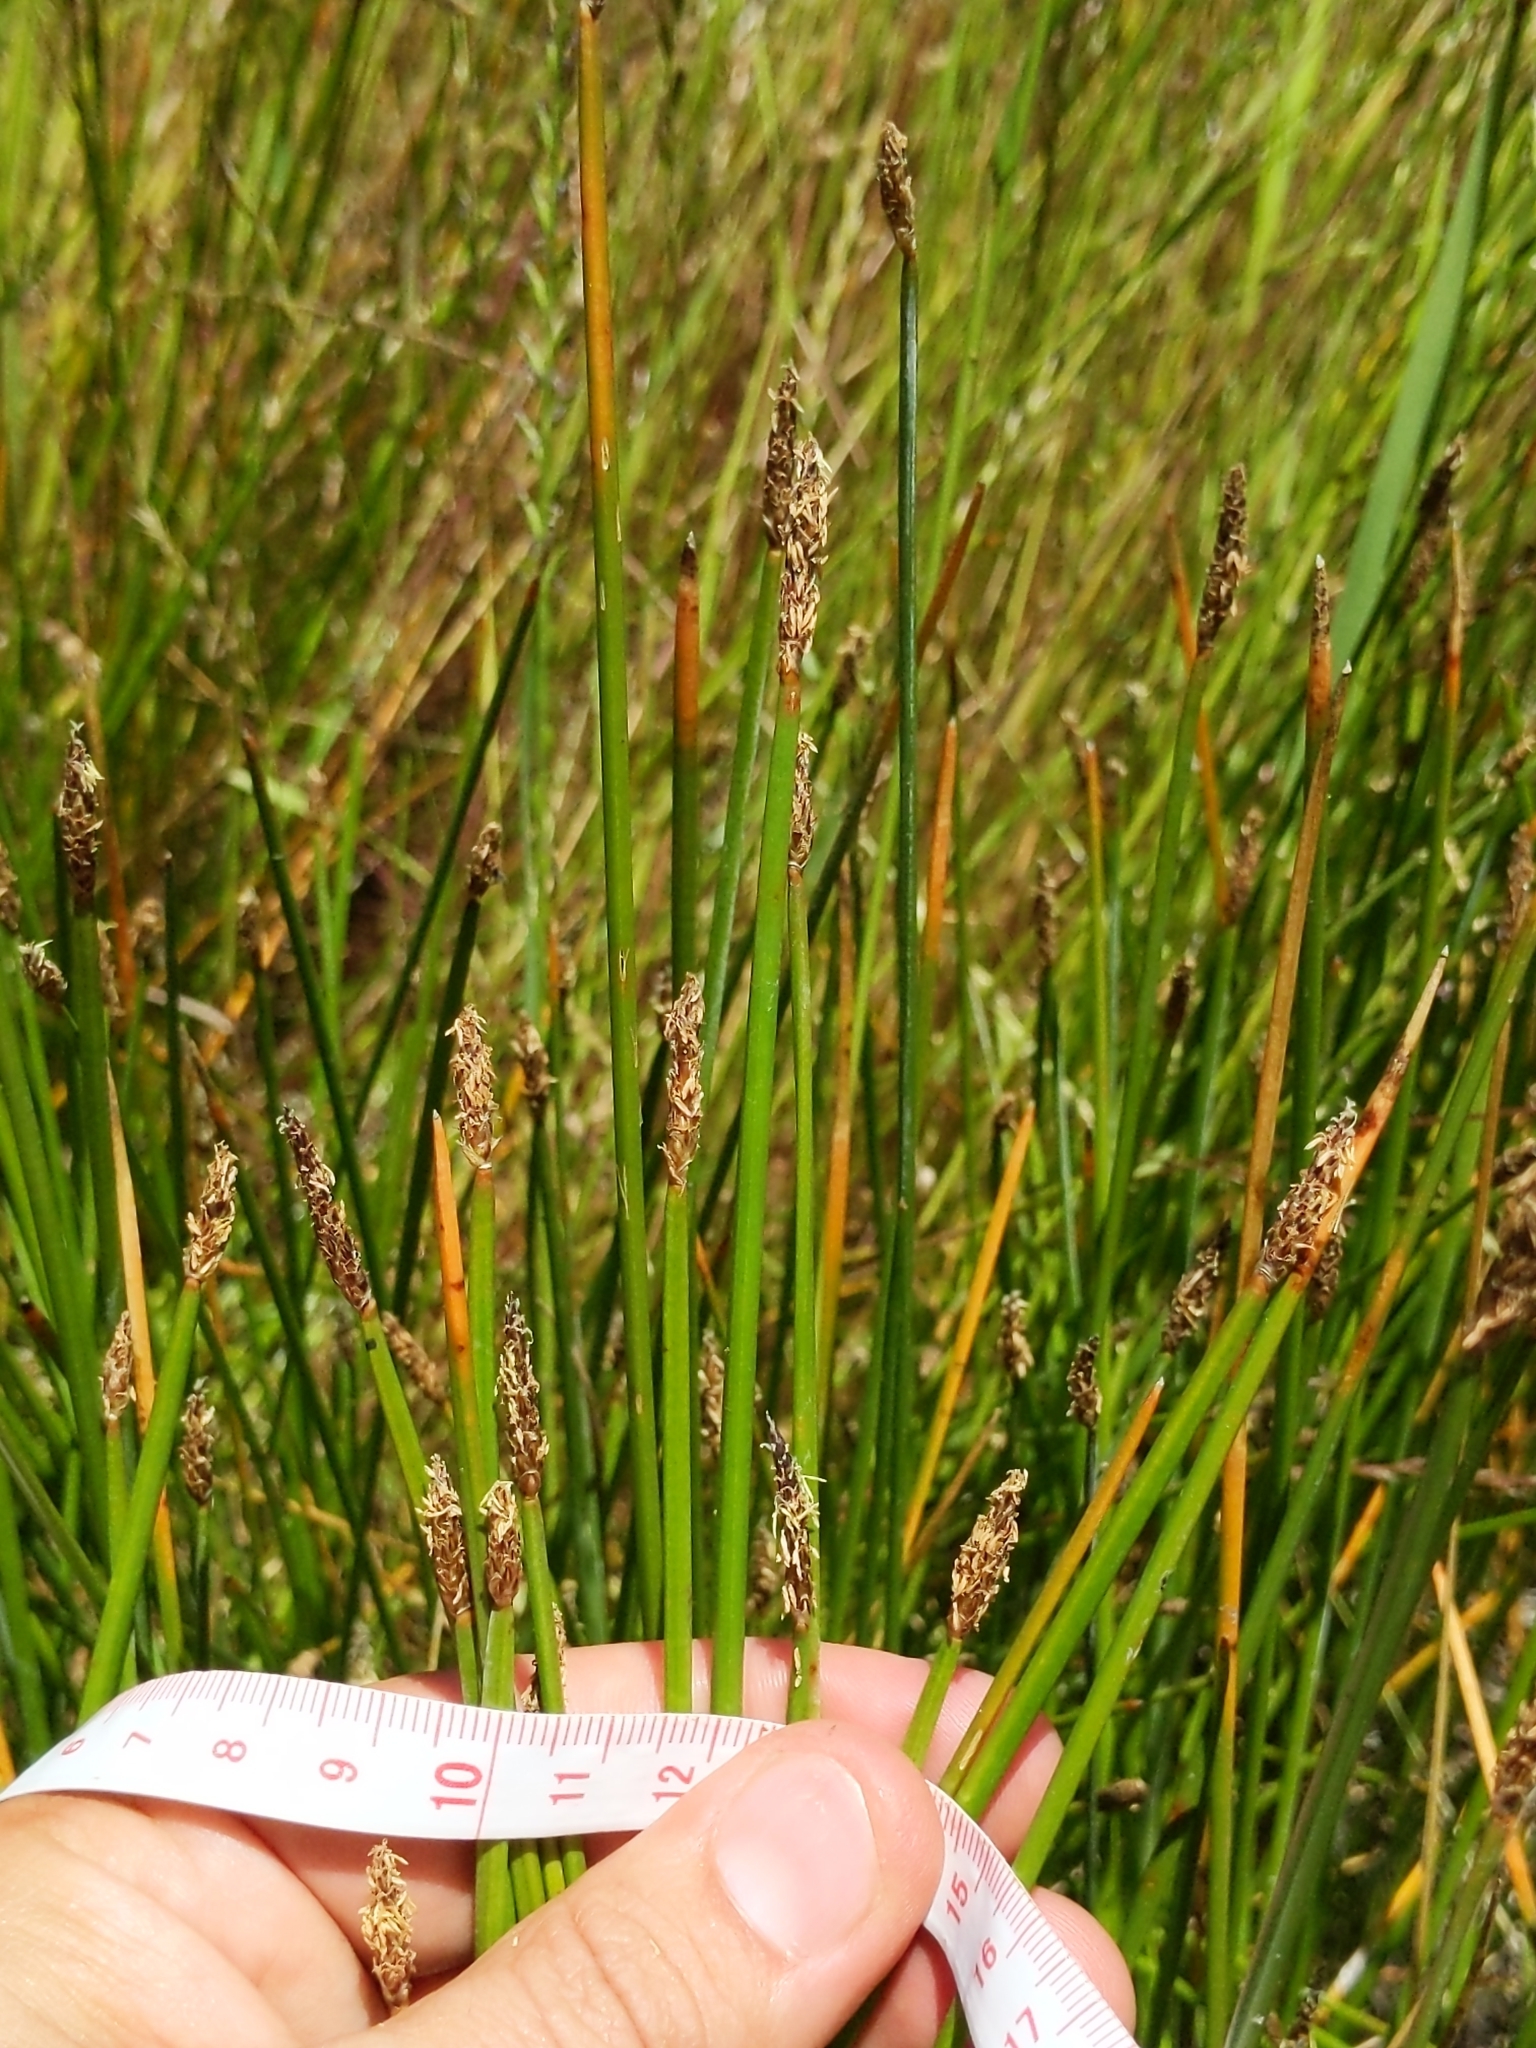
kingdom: Plantae
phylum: Tracheophyta
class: Liliopsida
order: Poales
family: Cyperaceae
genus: Eleocharis
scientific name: Eleocharis macrostachya
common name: Pale spikerush
